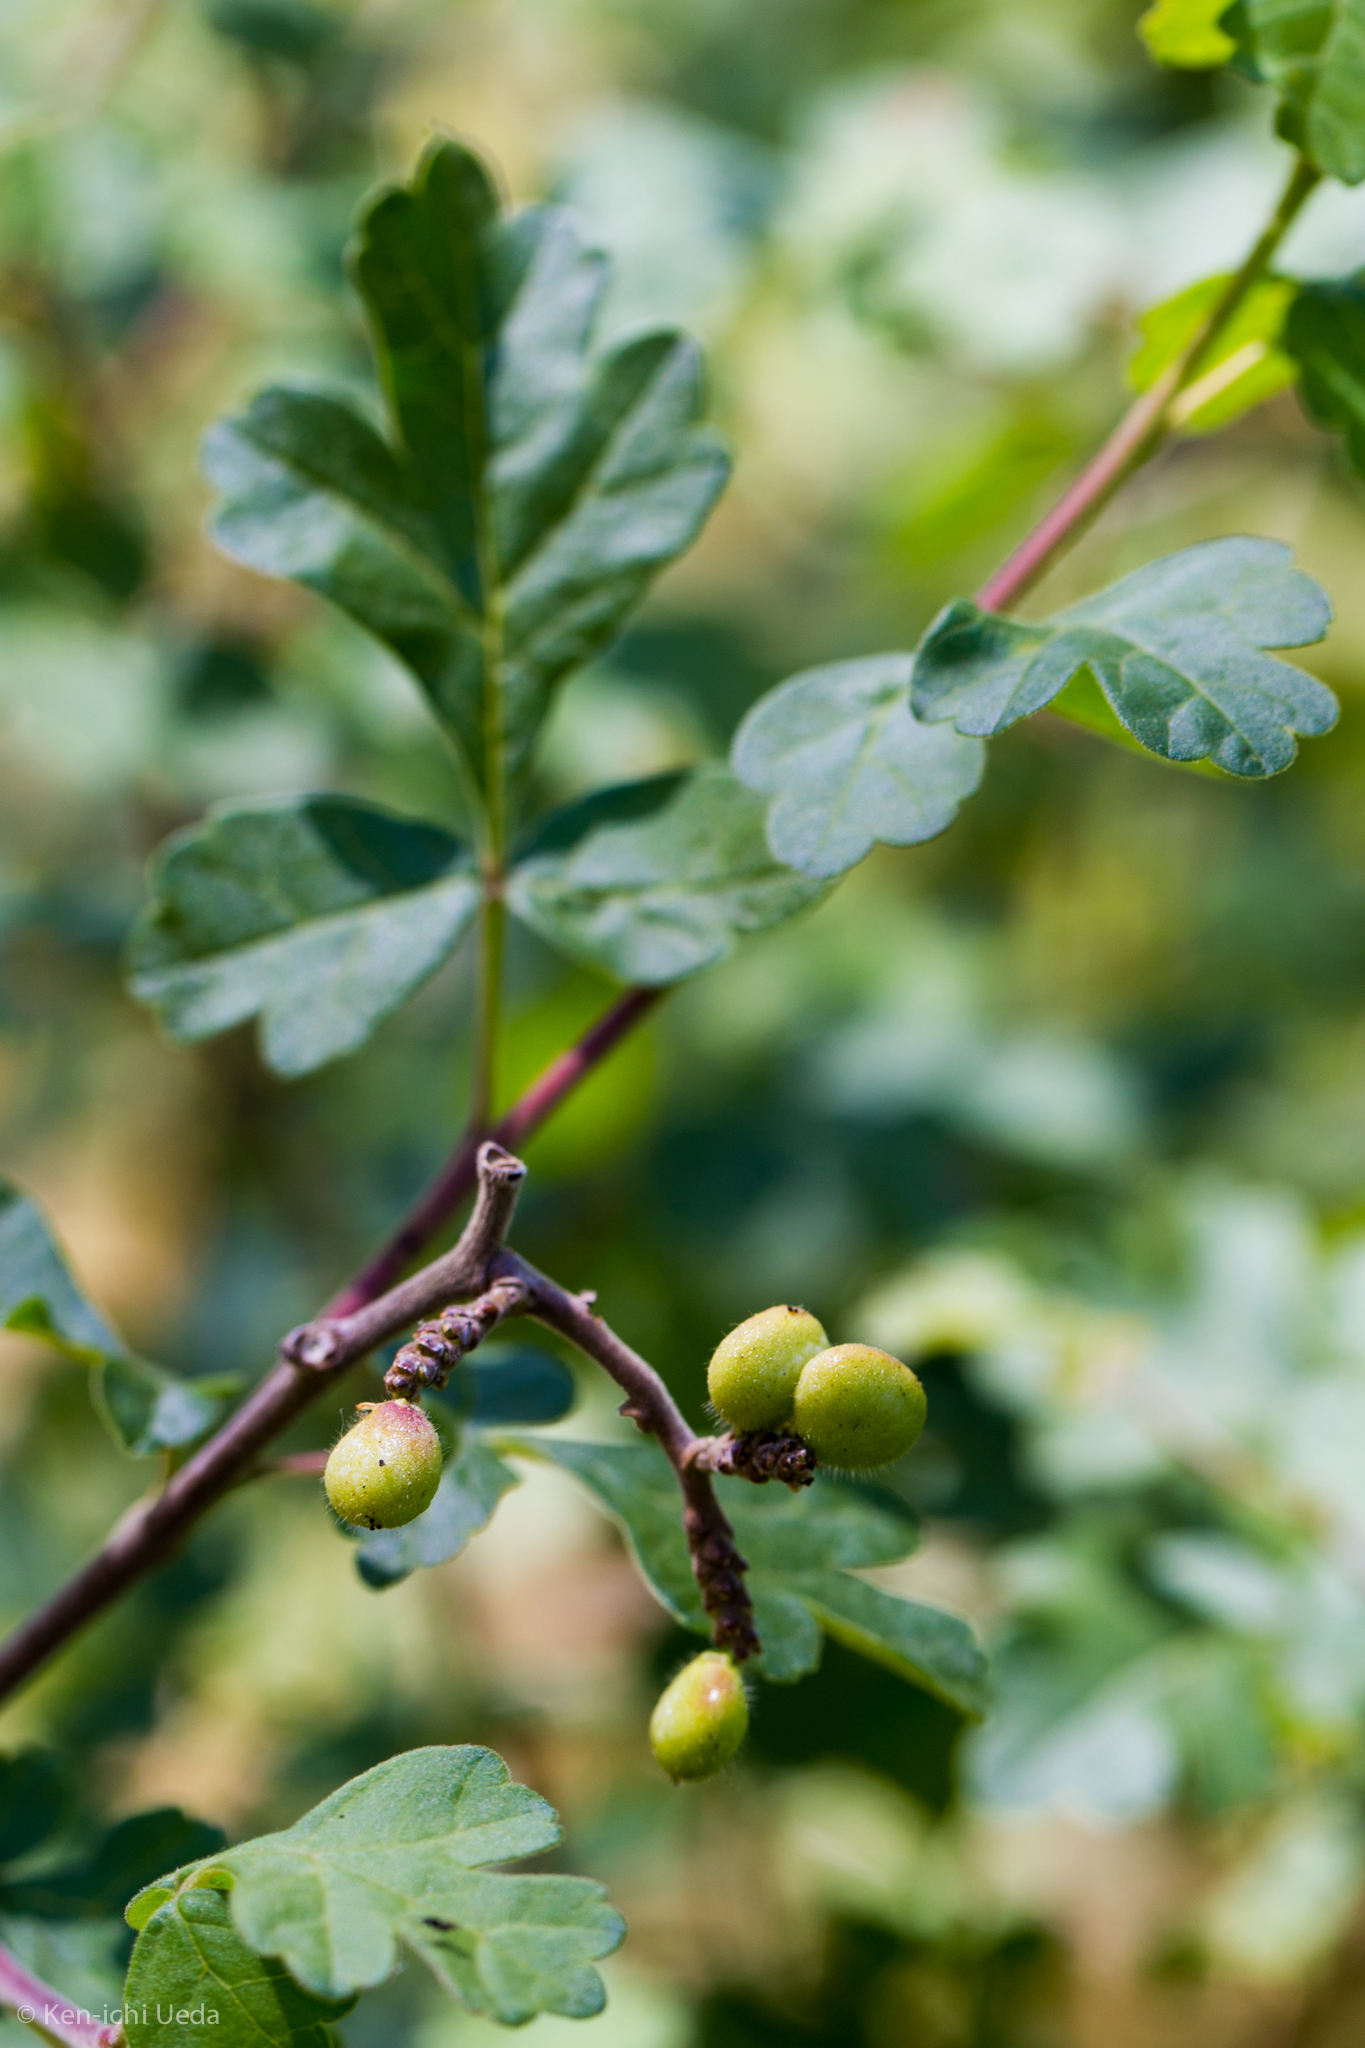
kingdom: Plantae
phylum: Tracheophyta
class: Magnoliopsida
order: Sapindales
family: Anacardiaceae
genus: Rhus
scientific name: Rhus aromatica
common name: Aromatic sumac
